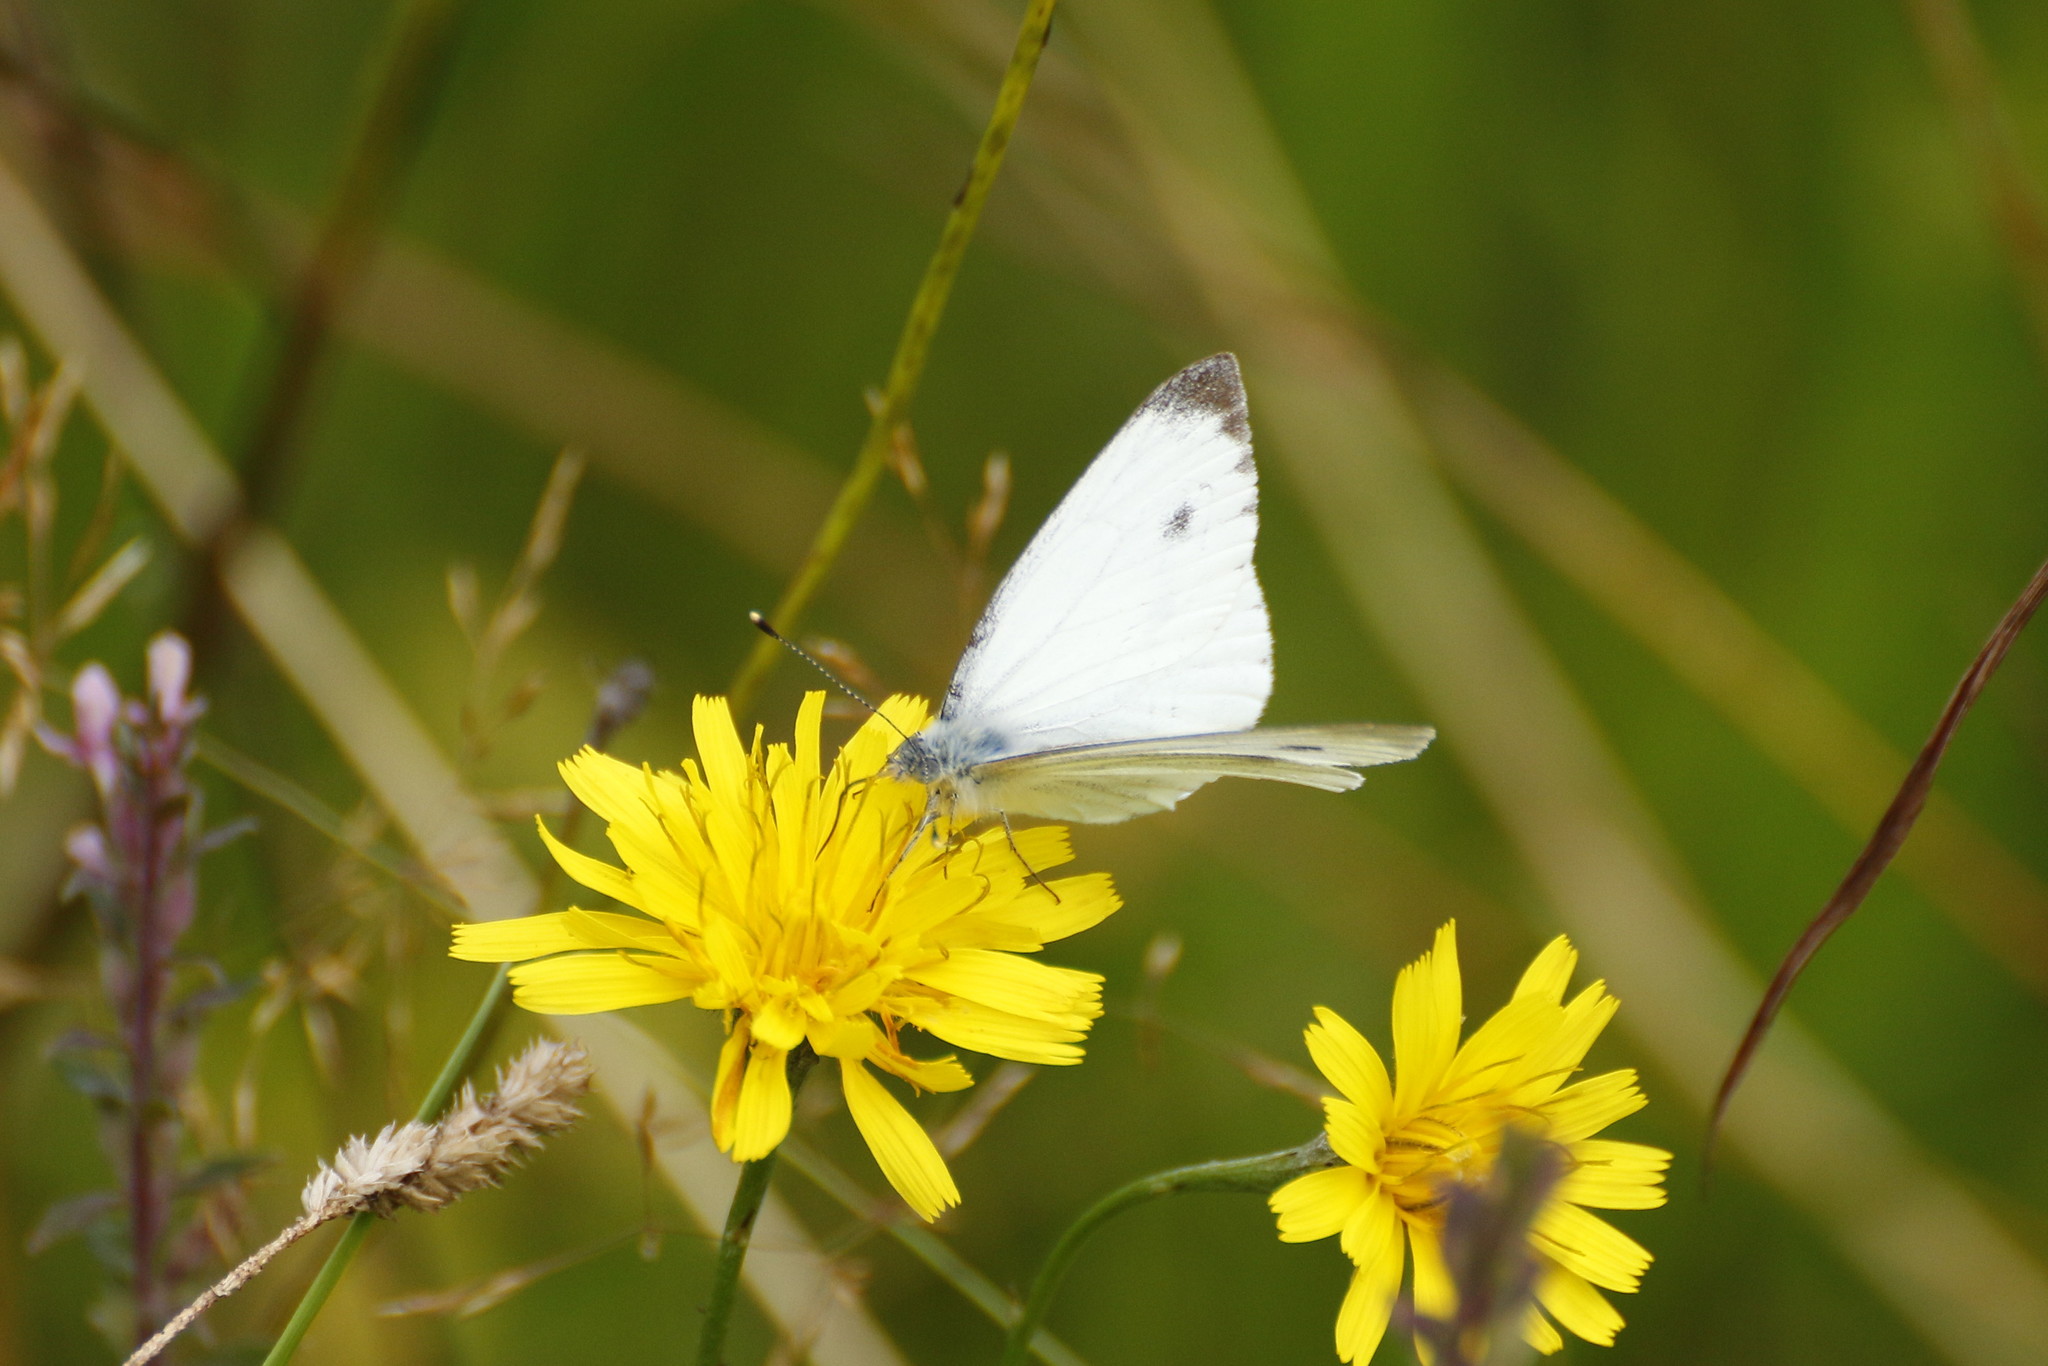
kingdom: Animalia
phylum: Arthropoda
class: Insecta
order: Lepidoptera
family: Pieridae
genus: Pieris
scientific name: Pieris napi
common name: Green-veined white
